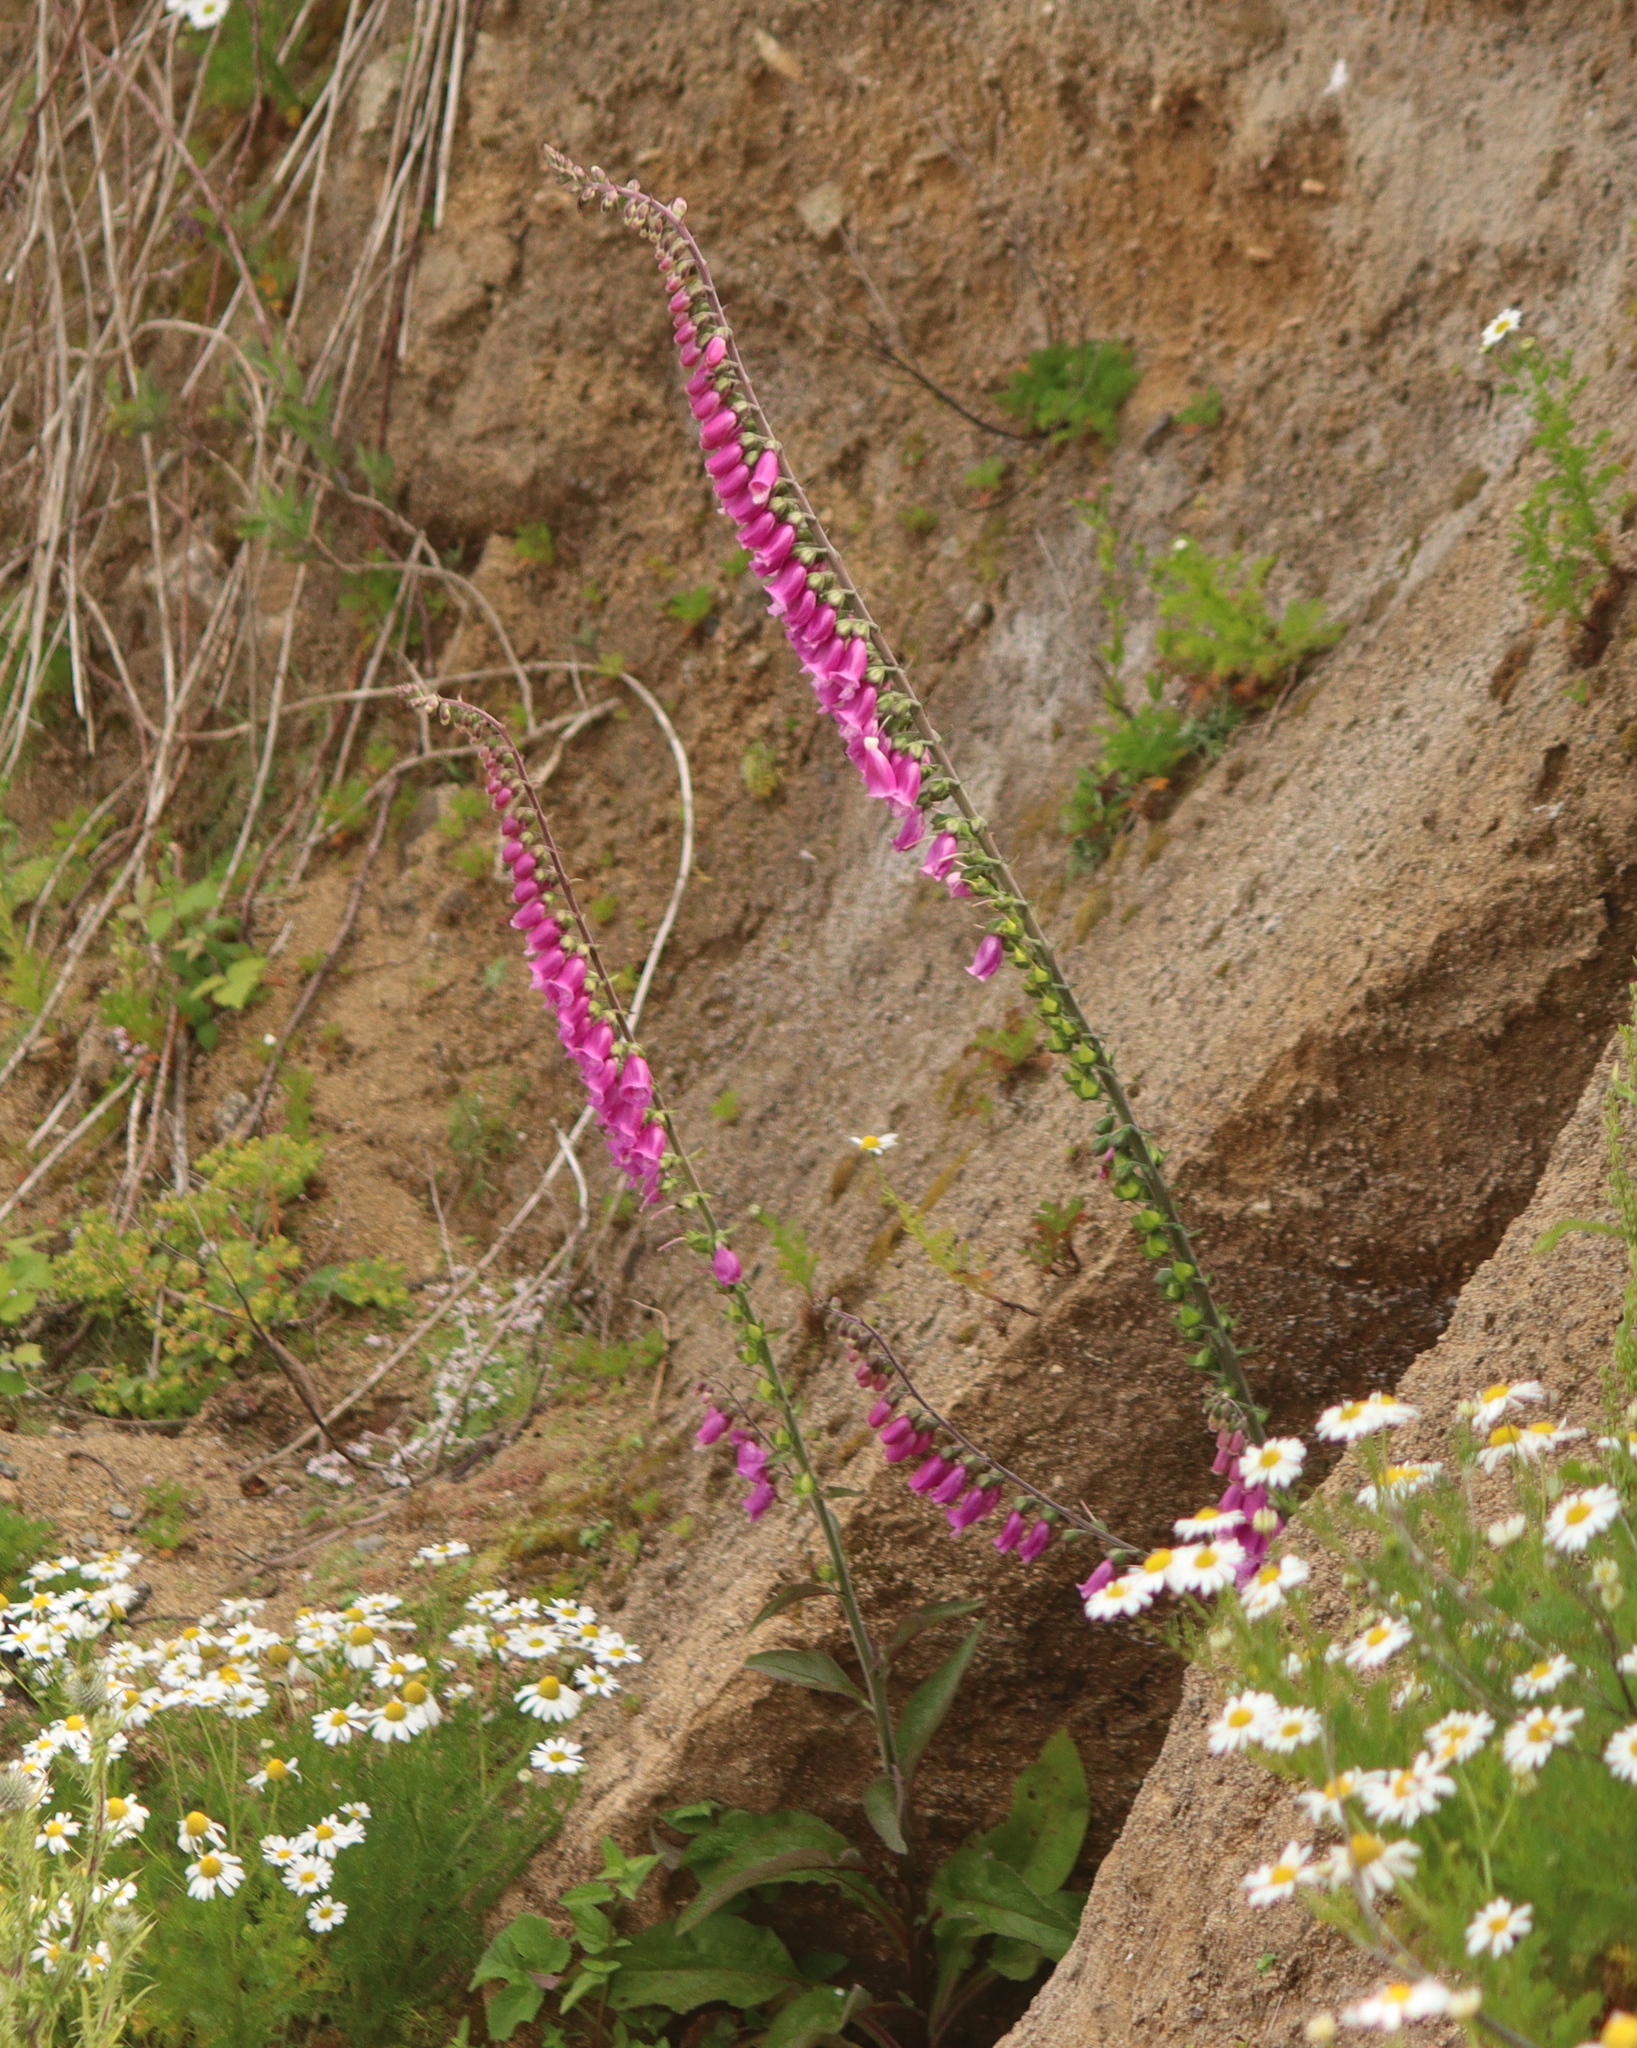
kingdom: Plantae
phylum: Tracheophyta
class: Magnoliopsida
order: Lamiales
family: Plantaginaceae
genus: Digitalis
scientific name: Digitalis purpurea
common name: Foxglove
